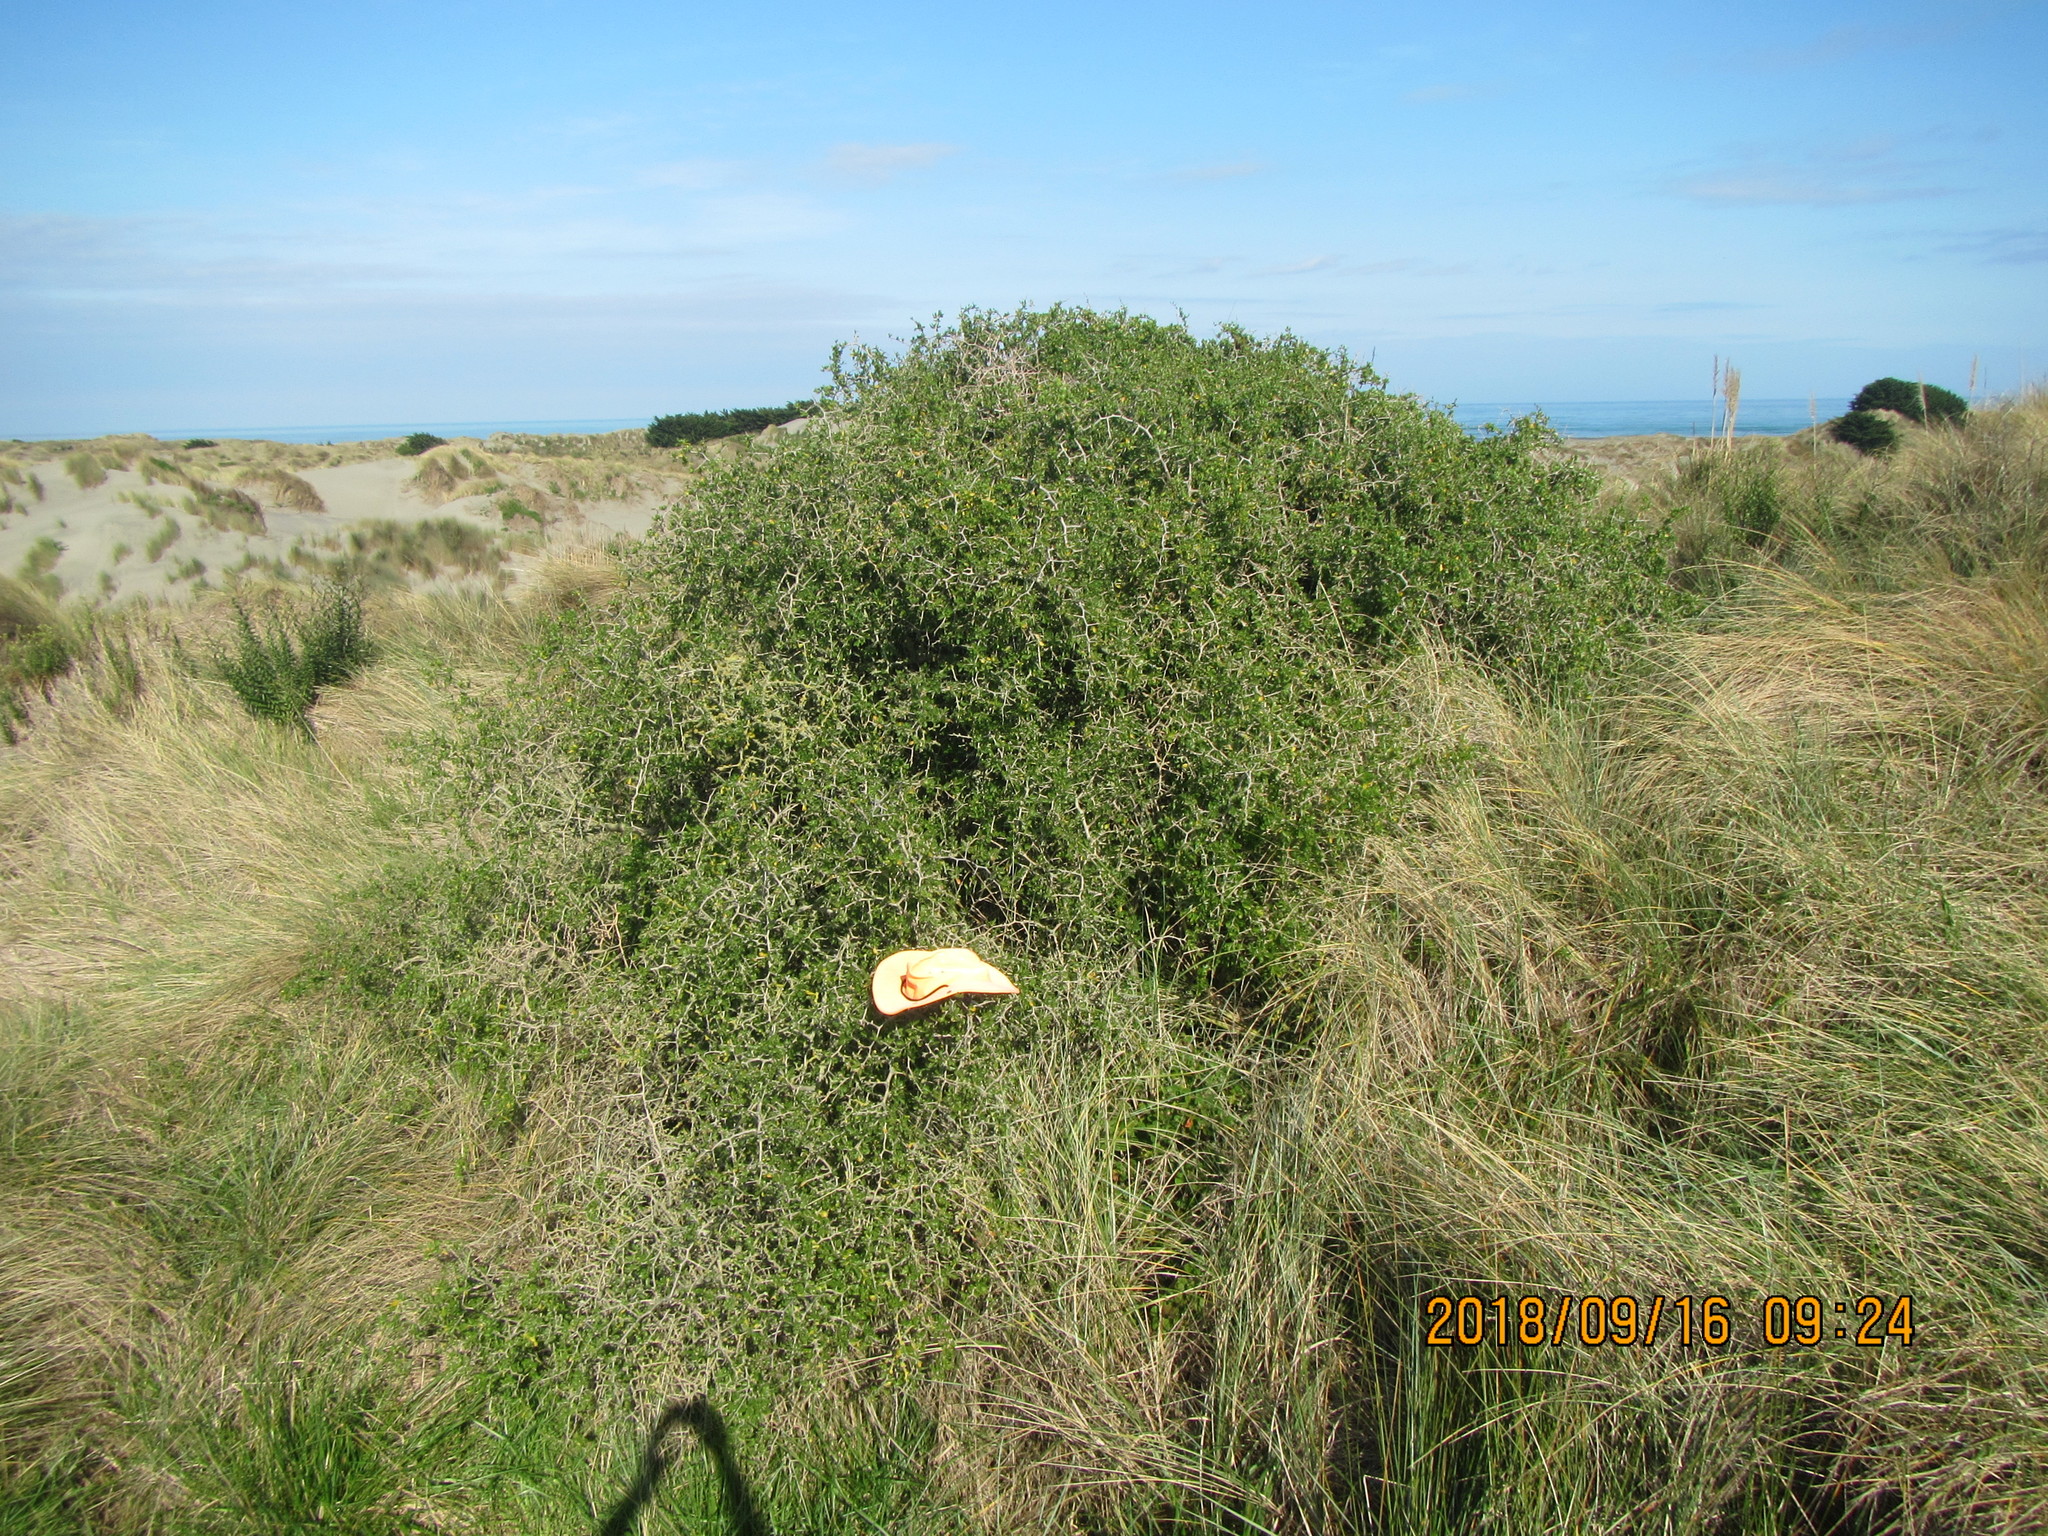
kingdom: Plantae
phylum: Tracheophyta
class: Magnoliopsida
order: Caryophyllales
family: Aizoaceae
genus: Tetragonia
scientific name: Tetragonia implexicoma
